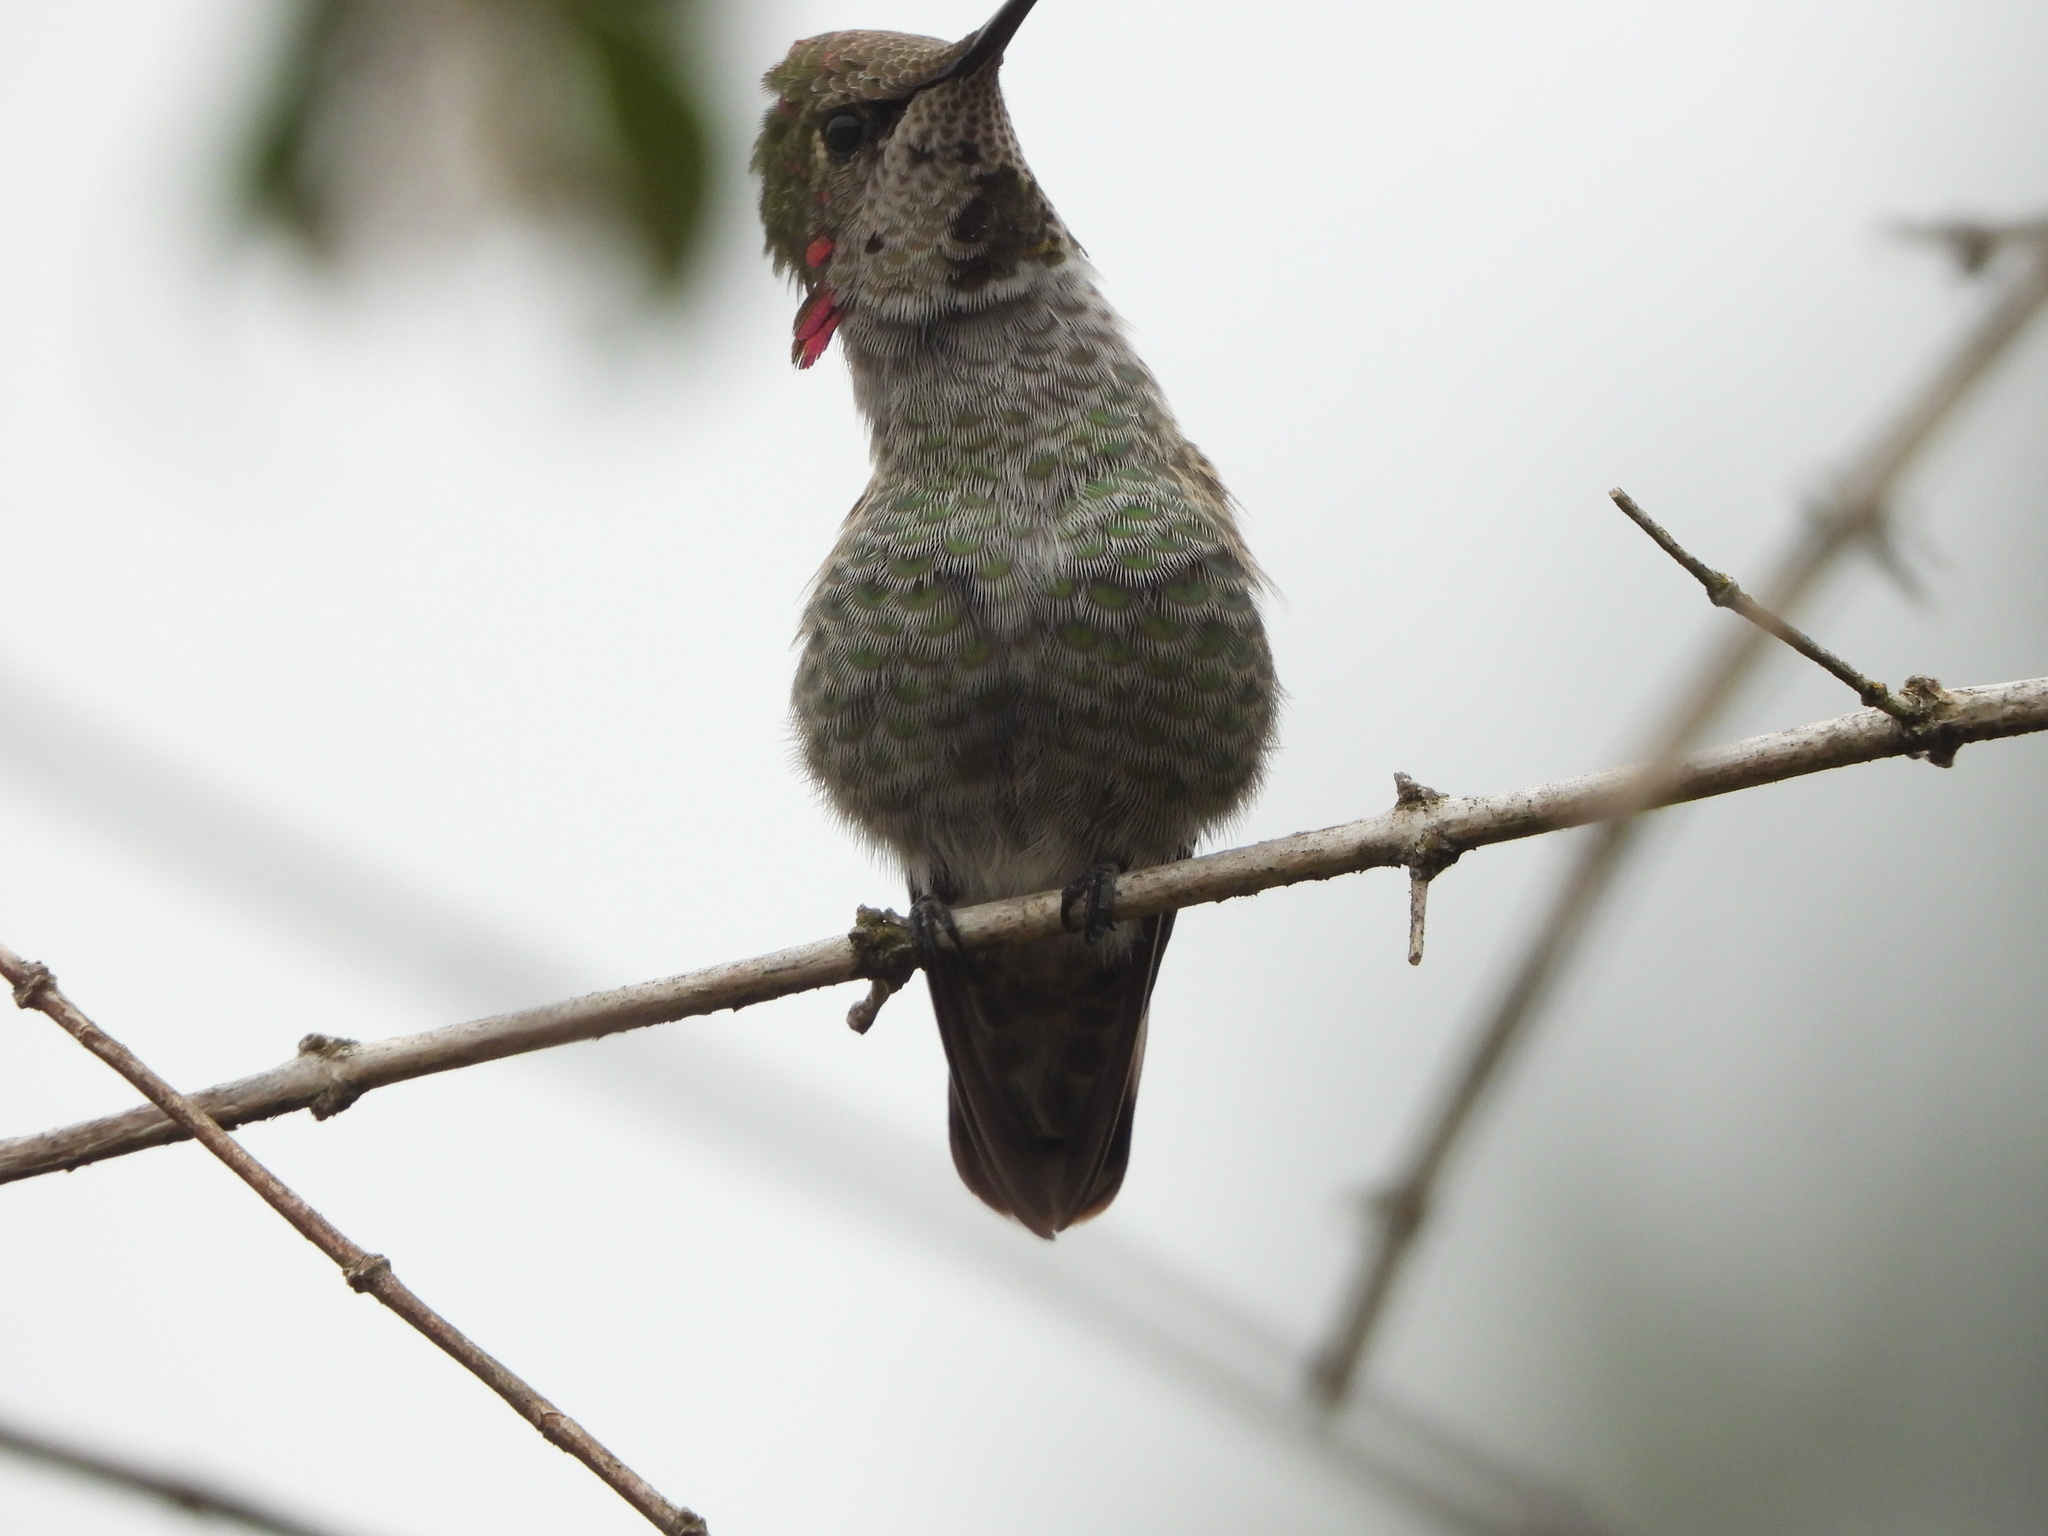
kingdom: Animalia
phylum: Chordata
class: Aves
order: Apodiformes
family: Trochilidae
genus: Calypte
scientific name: Calypte anna
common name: Anna's hummingbird
